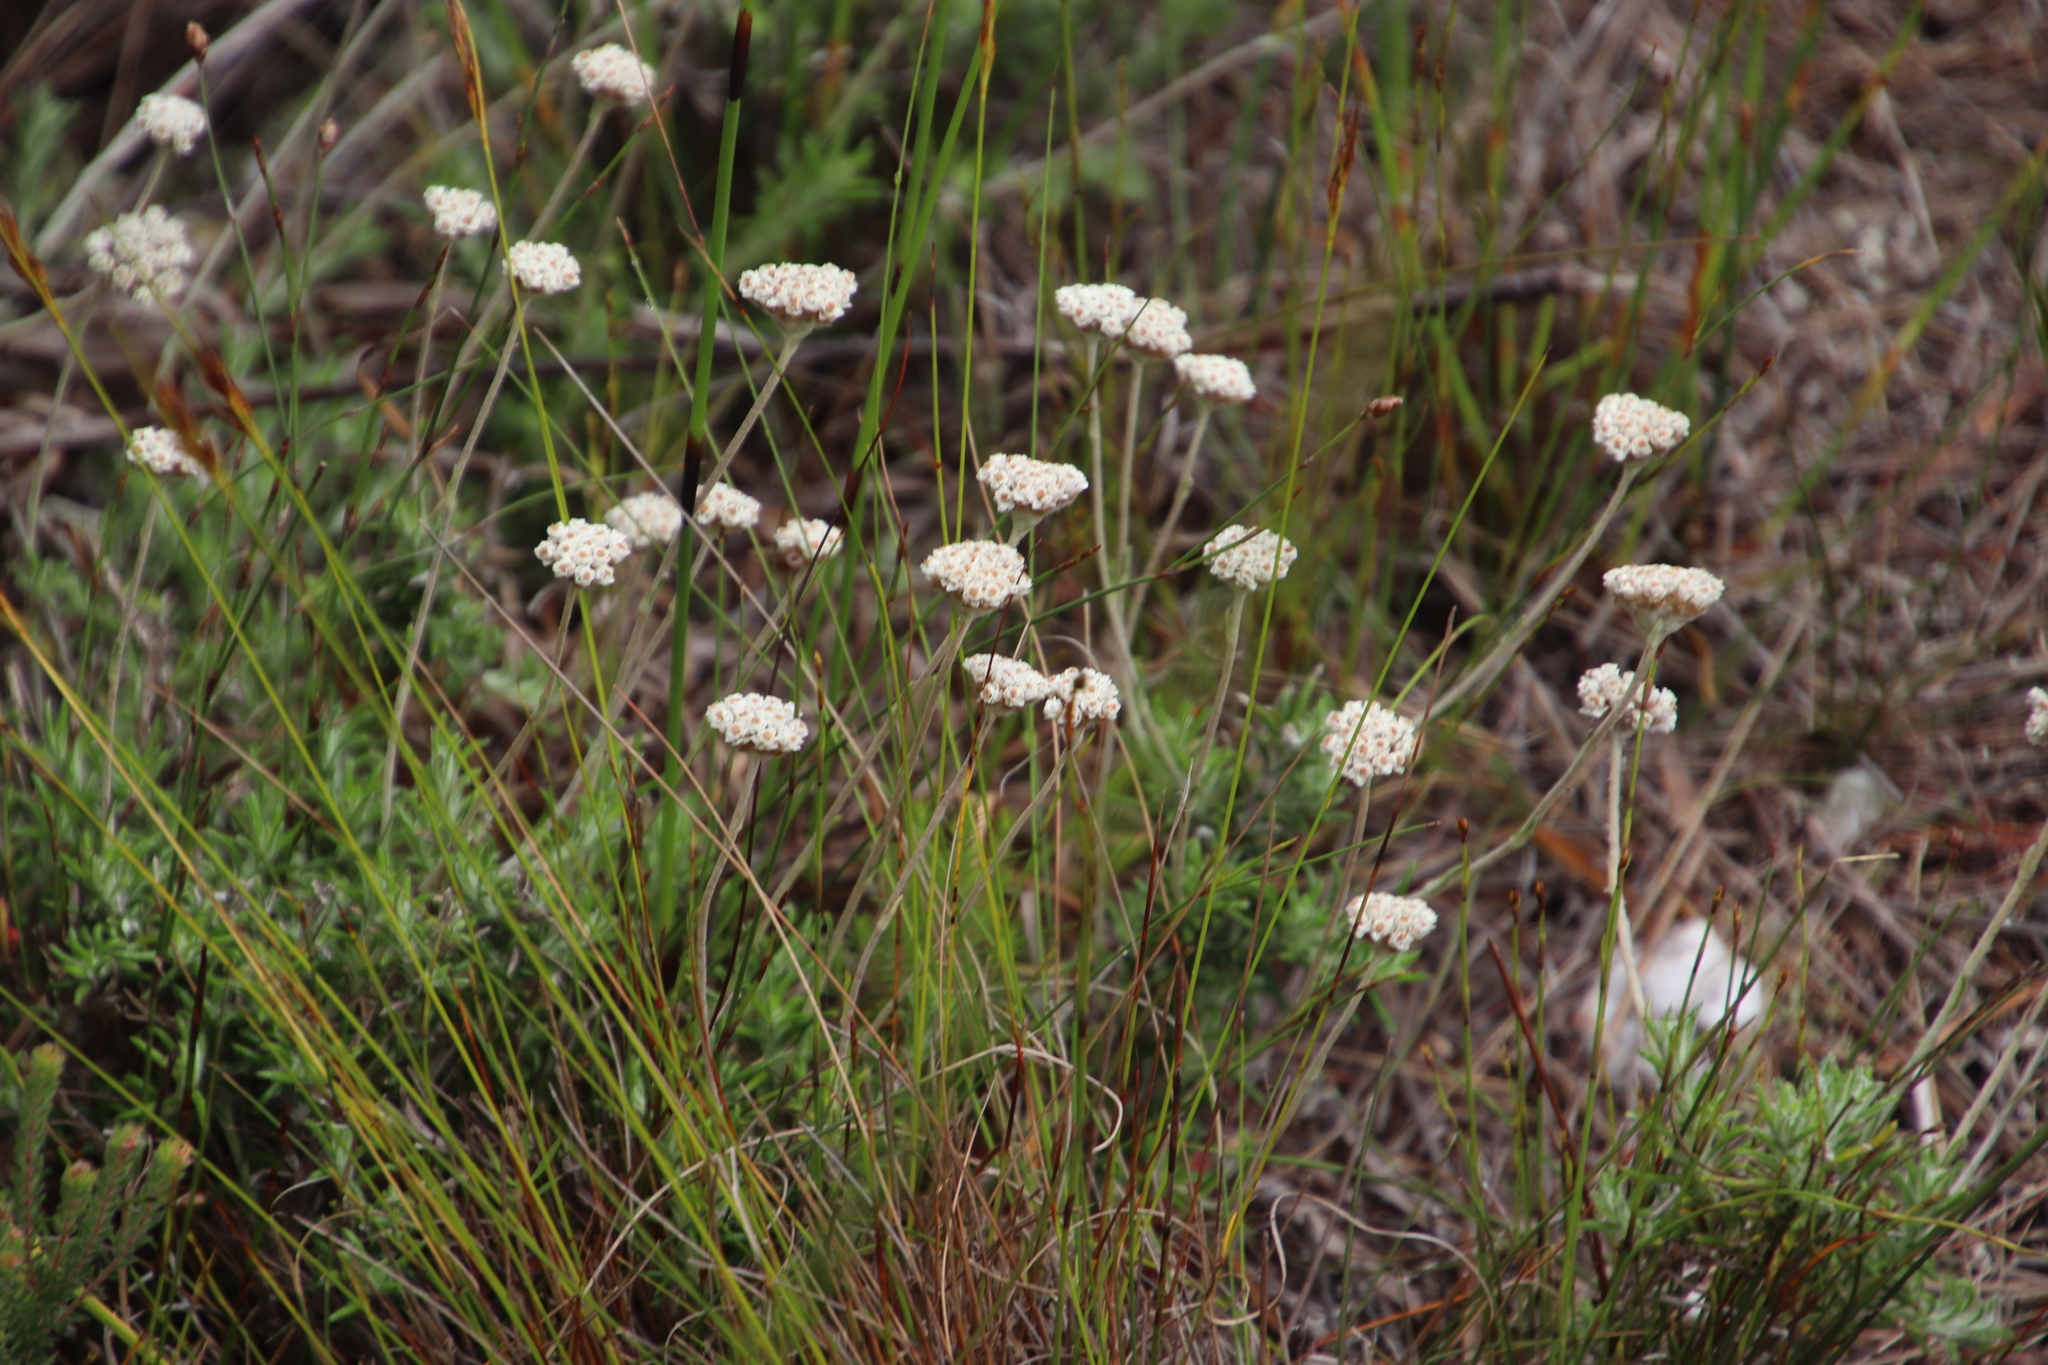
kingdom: Plantae
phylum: Tracheophyta
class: Magnoliopsida
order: Asterales
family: Asteraceae
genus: Anaxeton
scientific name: Anaxeton asperum
